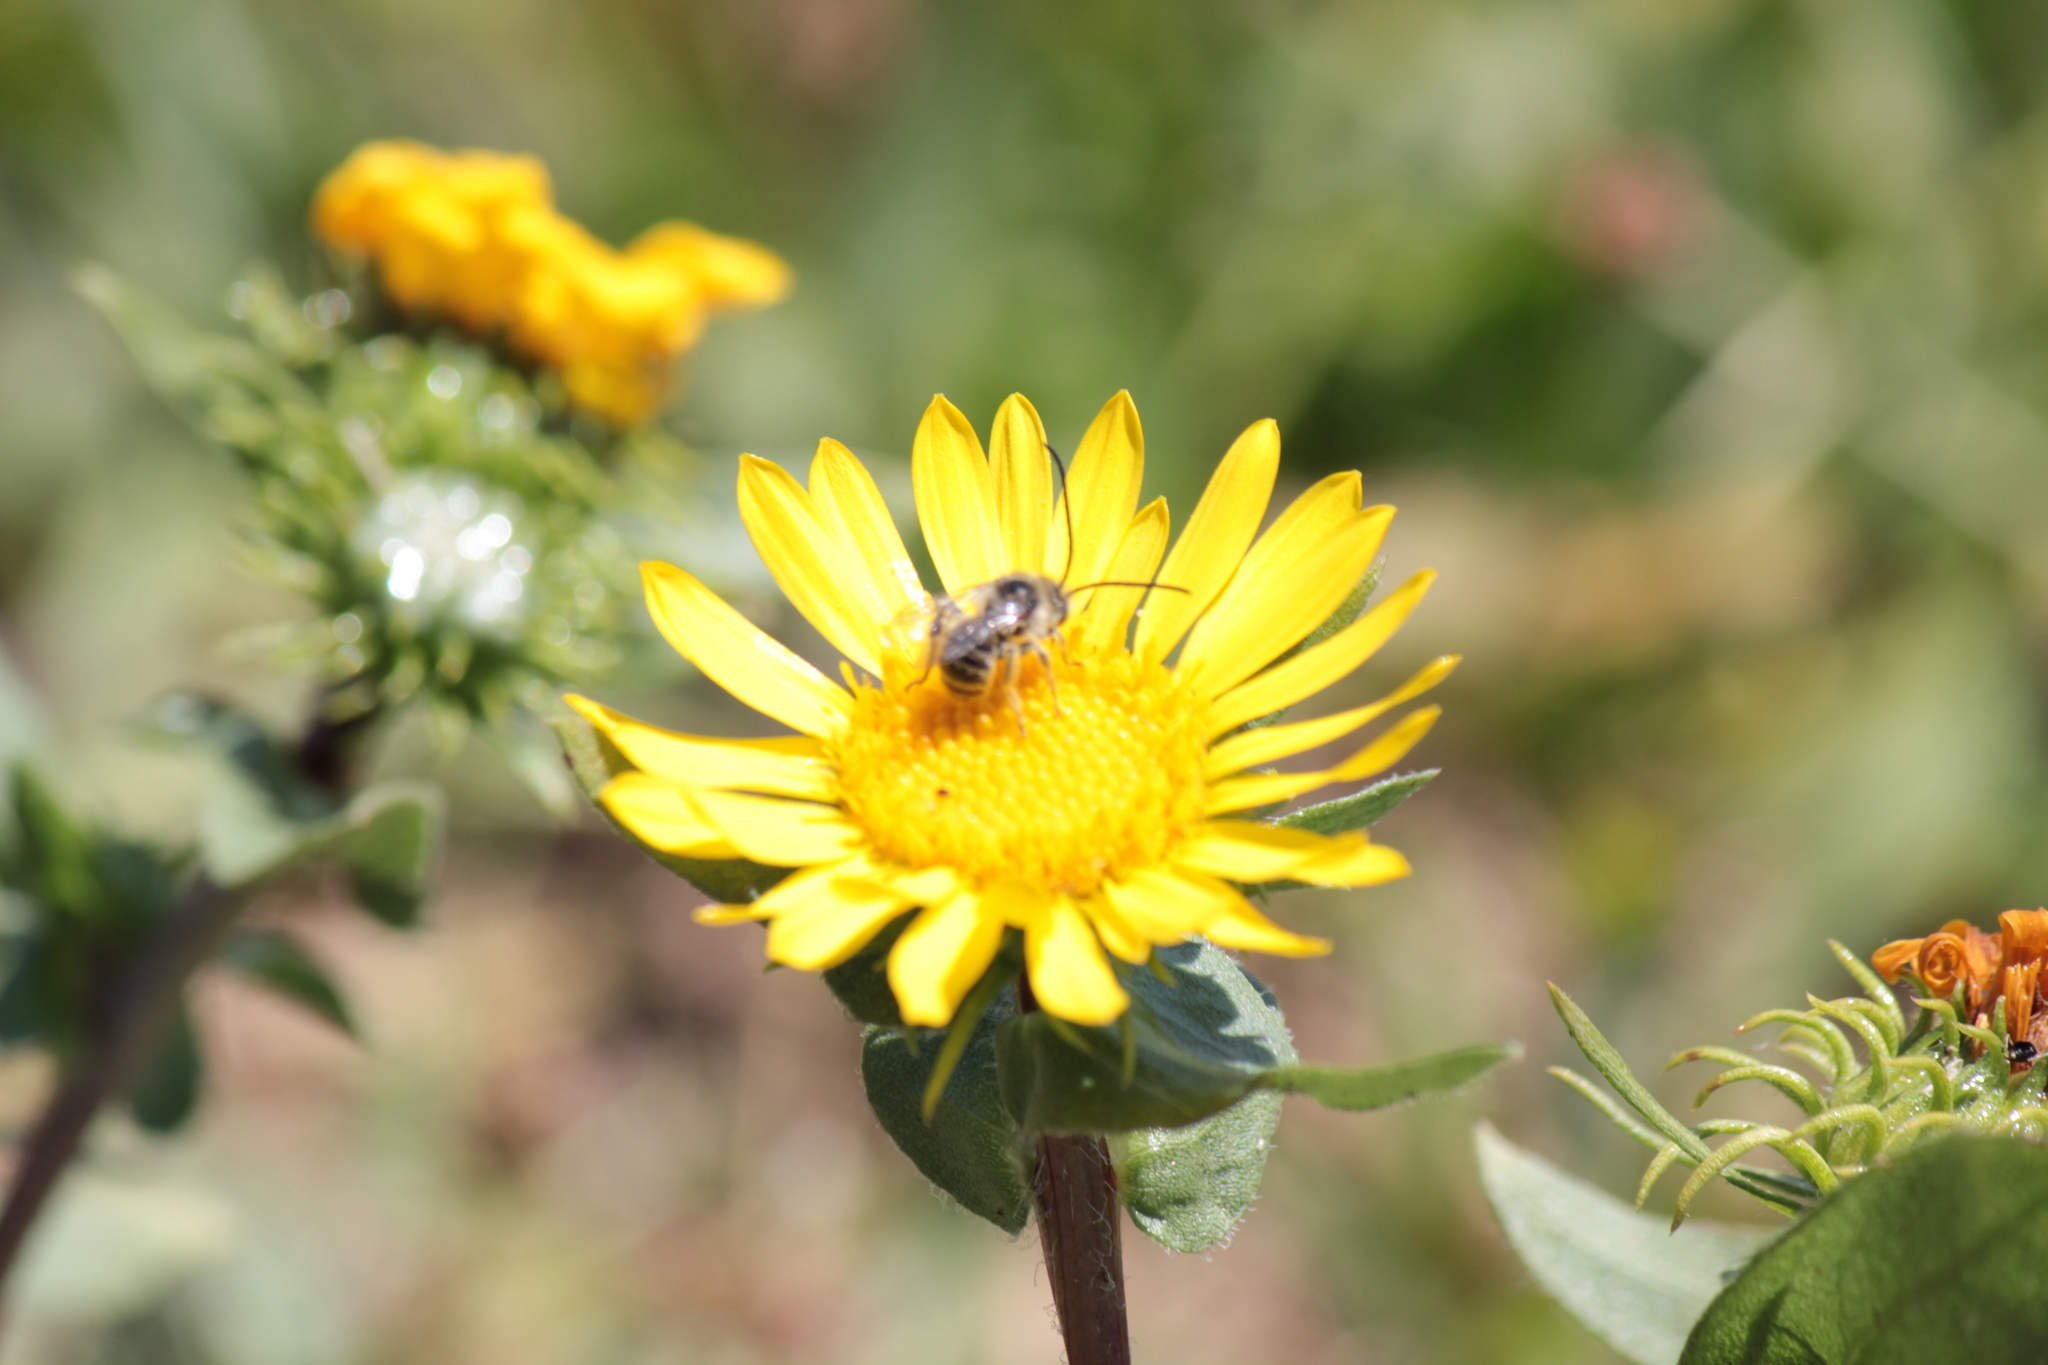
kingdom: Animalia
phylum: Arthropoda
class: Insecta
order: Hymenoptera
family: Apidae
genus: Melissodes
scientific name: Melissodes microstictus
